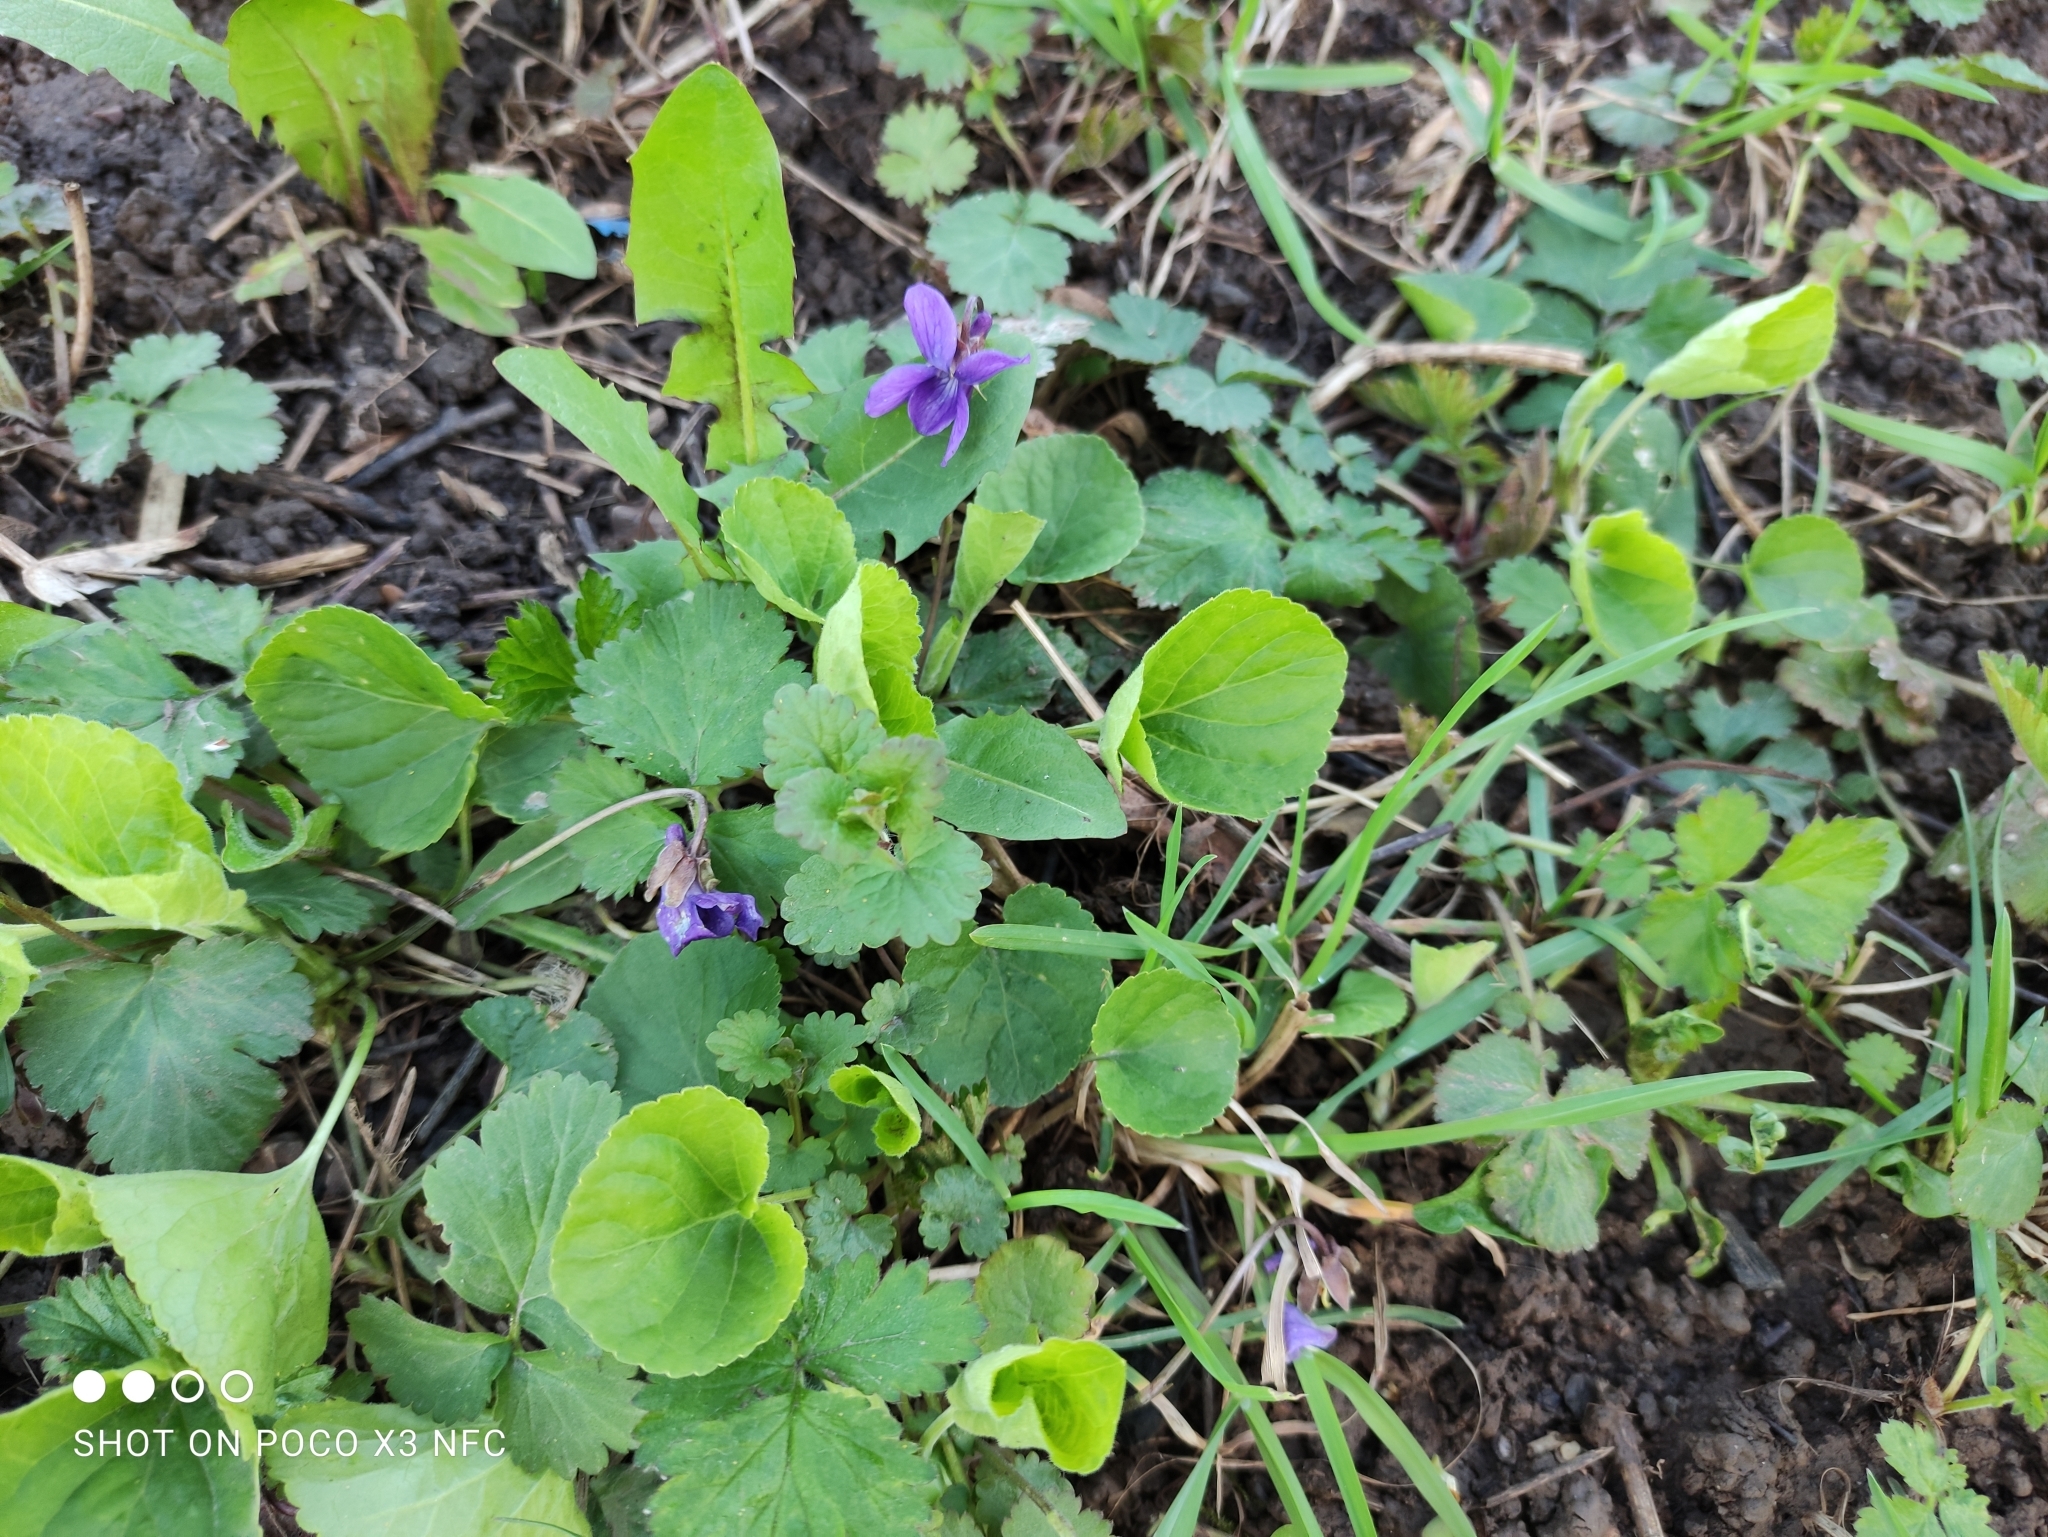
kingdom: Plantae
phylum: Tracheophyta
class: Magnoliopsida
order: Malpighiales
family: Violaceae
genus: Viola
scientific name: Viola mirabilis
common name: Wonder violet
